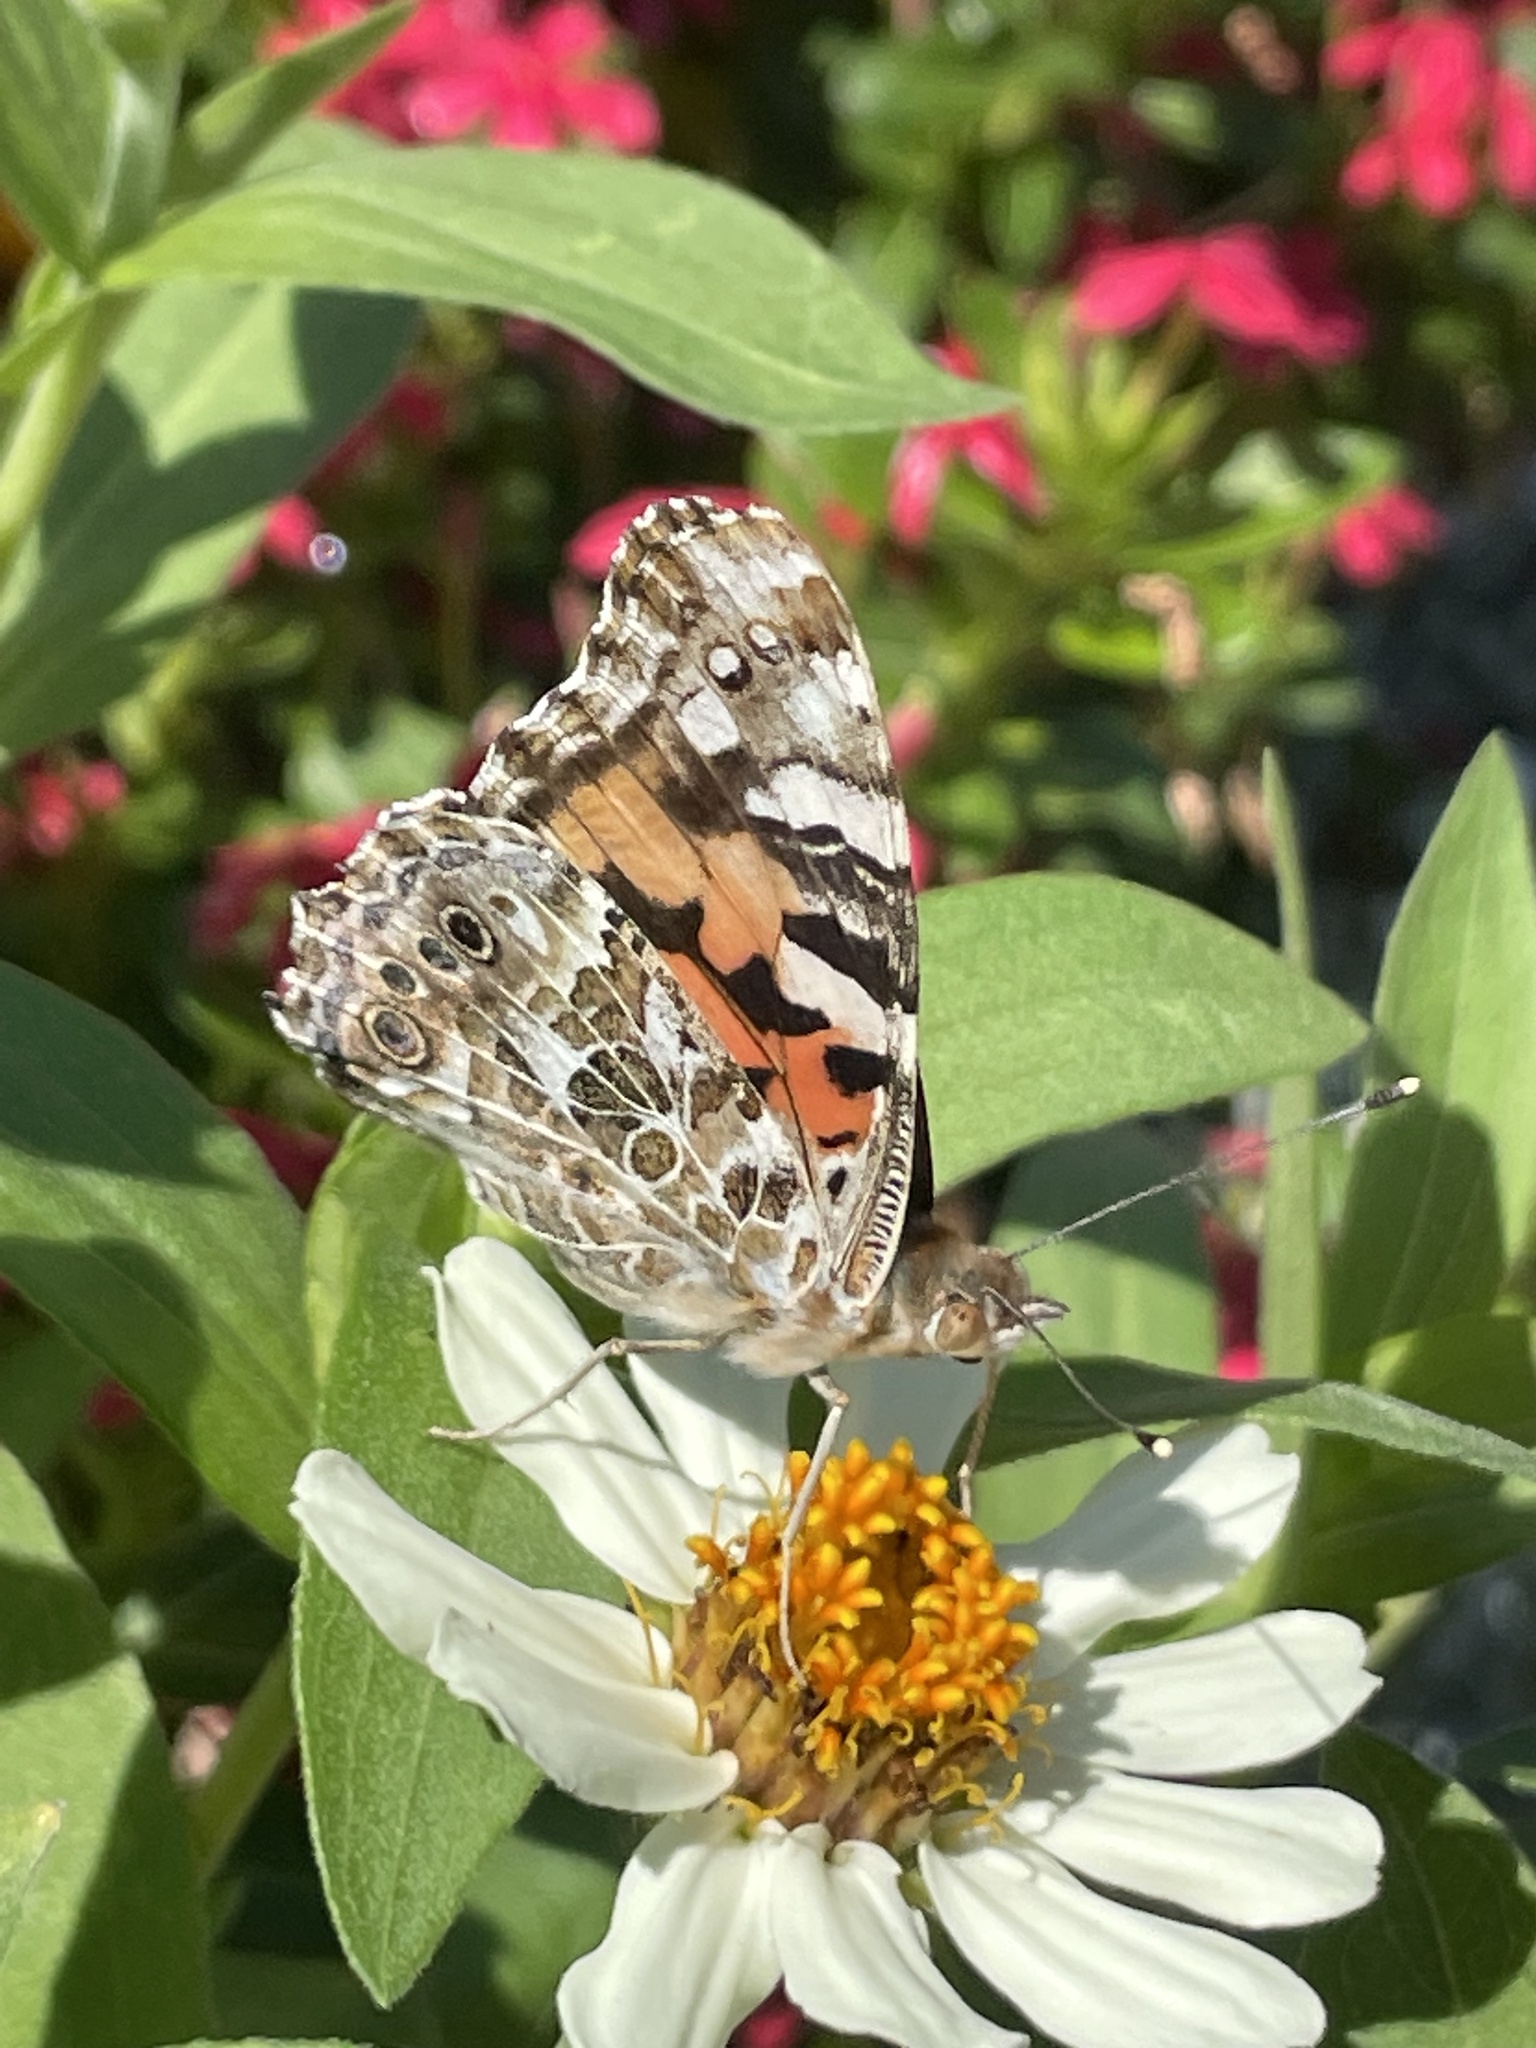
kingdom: Animalia
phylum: Arthropoda
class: Insecta
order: Lepidoptera
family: Nymphalidae
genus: Vanessa
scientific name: Vanessa cardui
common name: Painted lady
